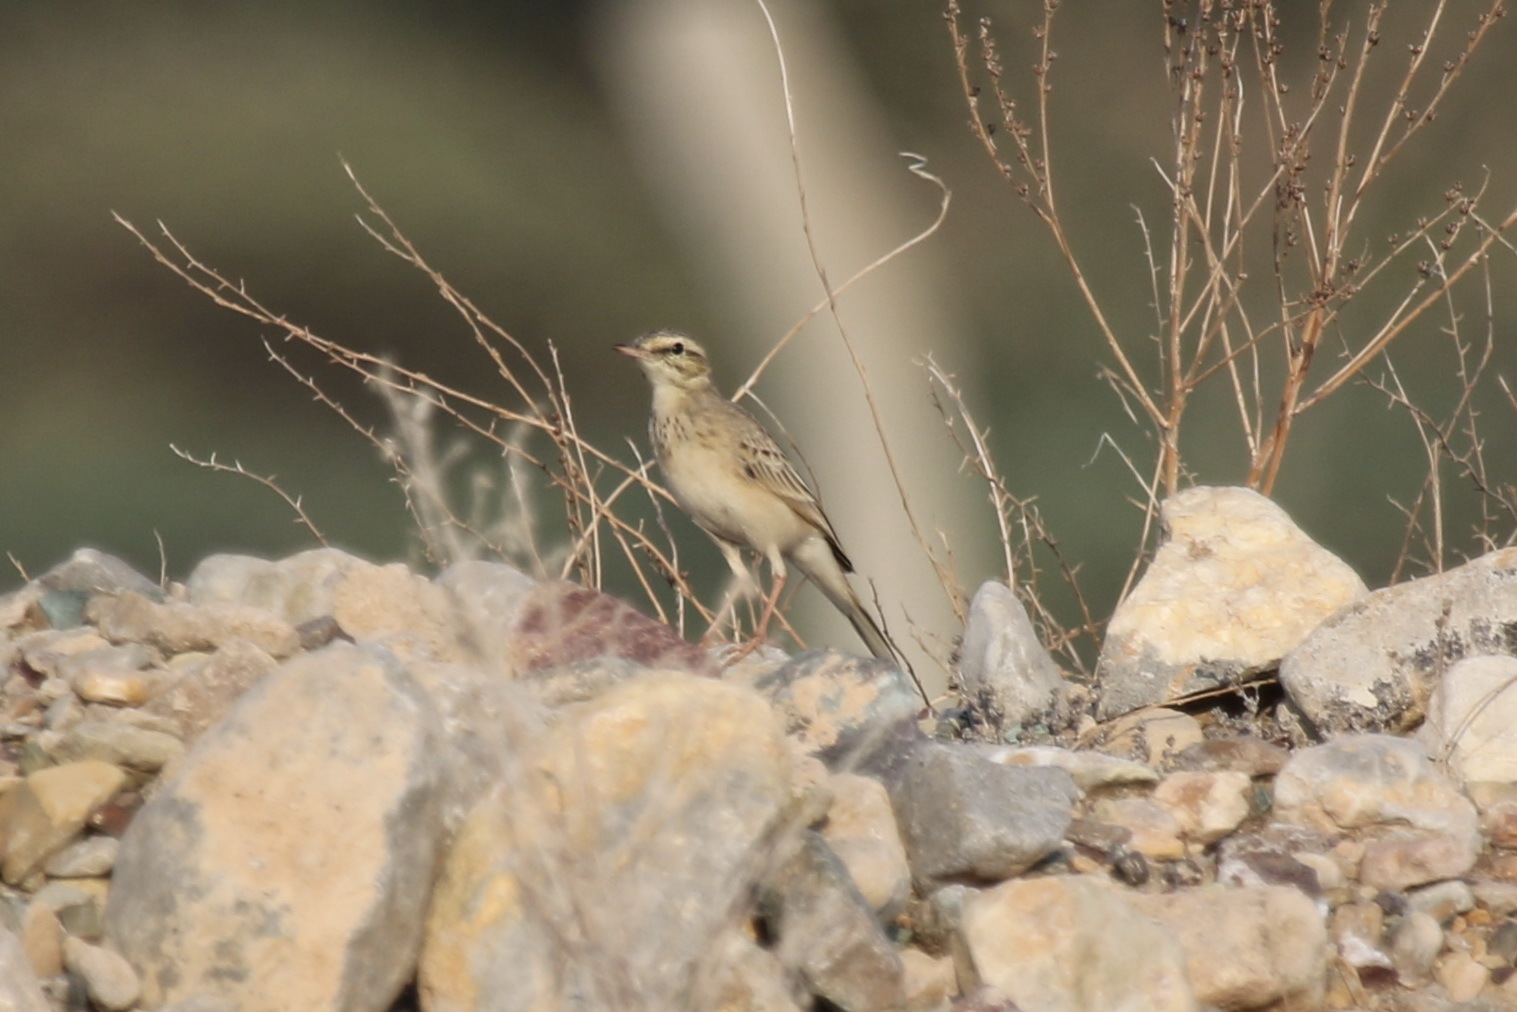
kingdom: Animalia
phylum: Chordata
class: Aves
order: Passeriformes
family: Motacillidae
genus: Anthus
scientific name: Anthus similis
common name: Long-billed pipit
